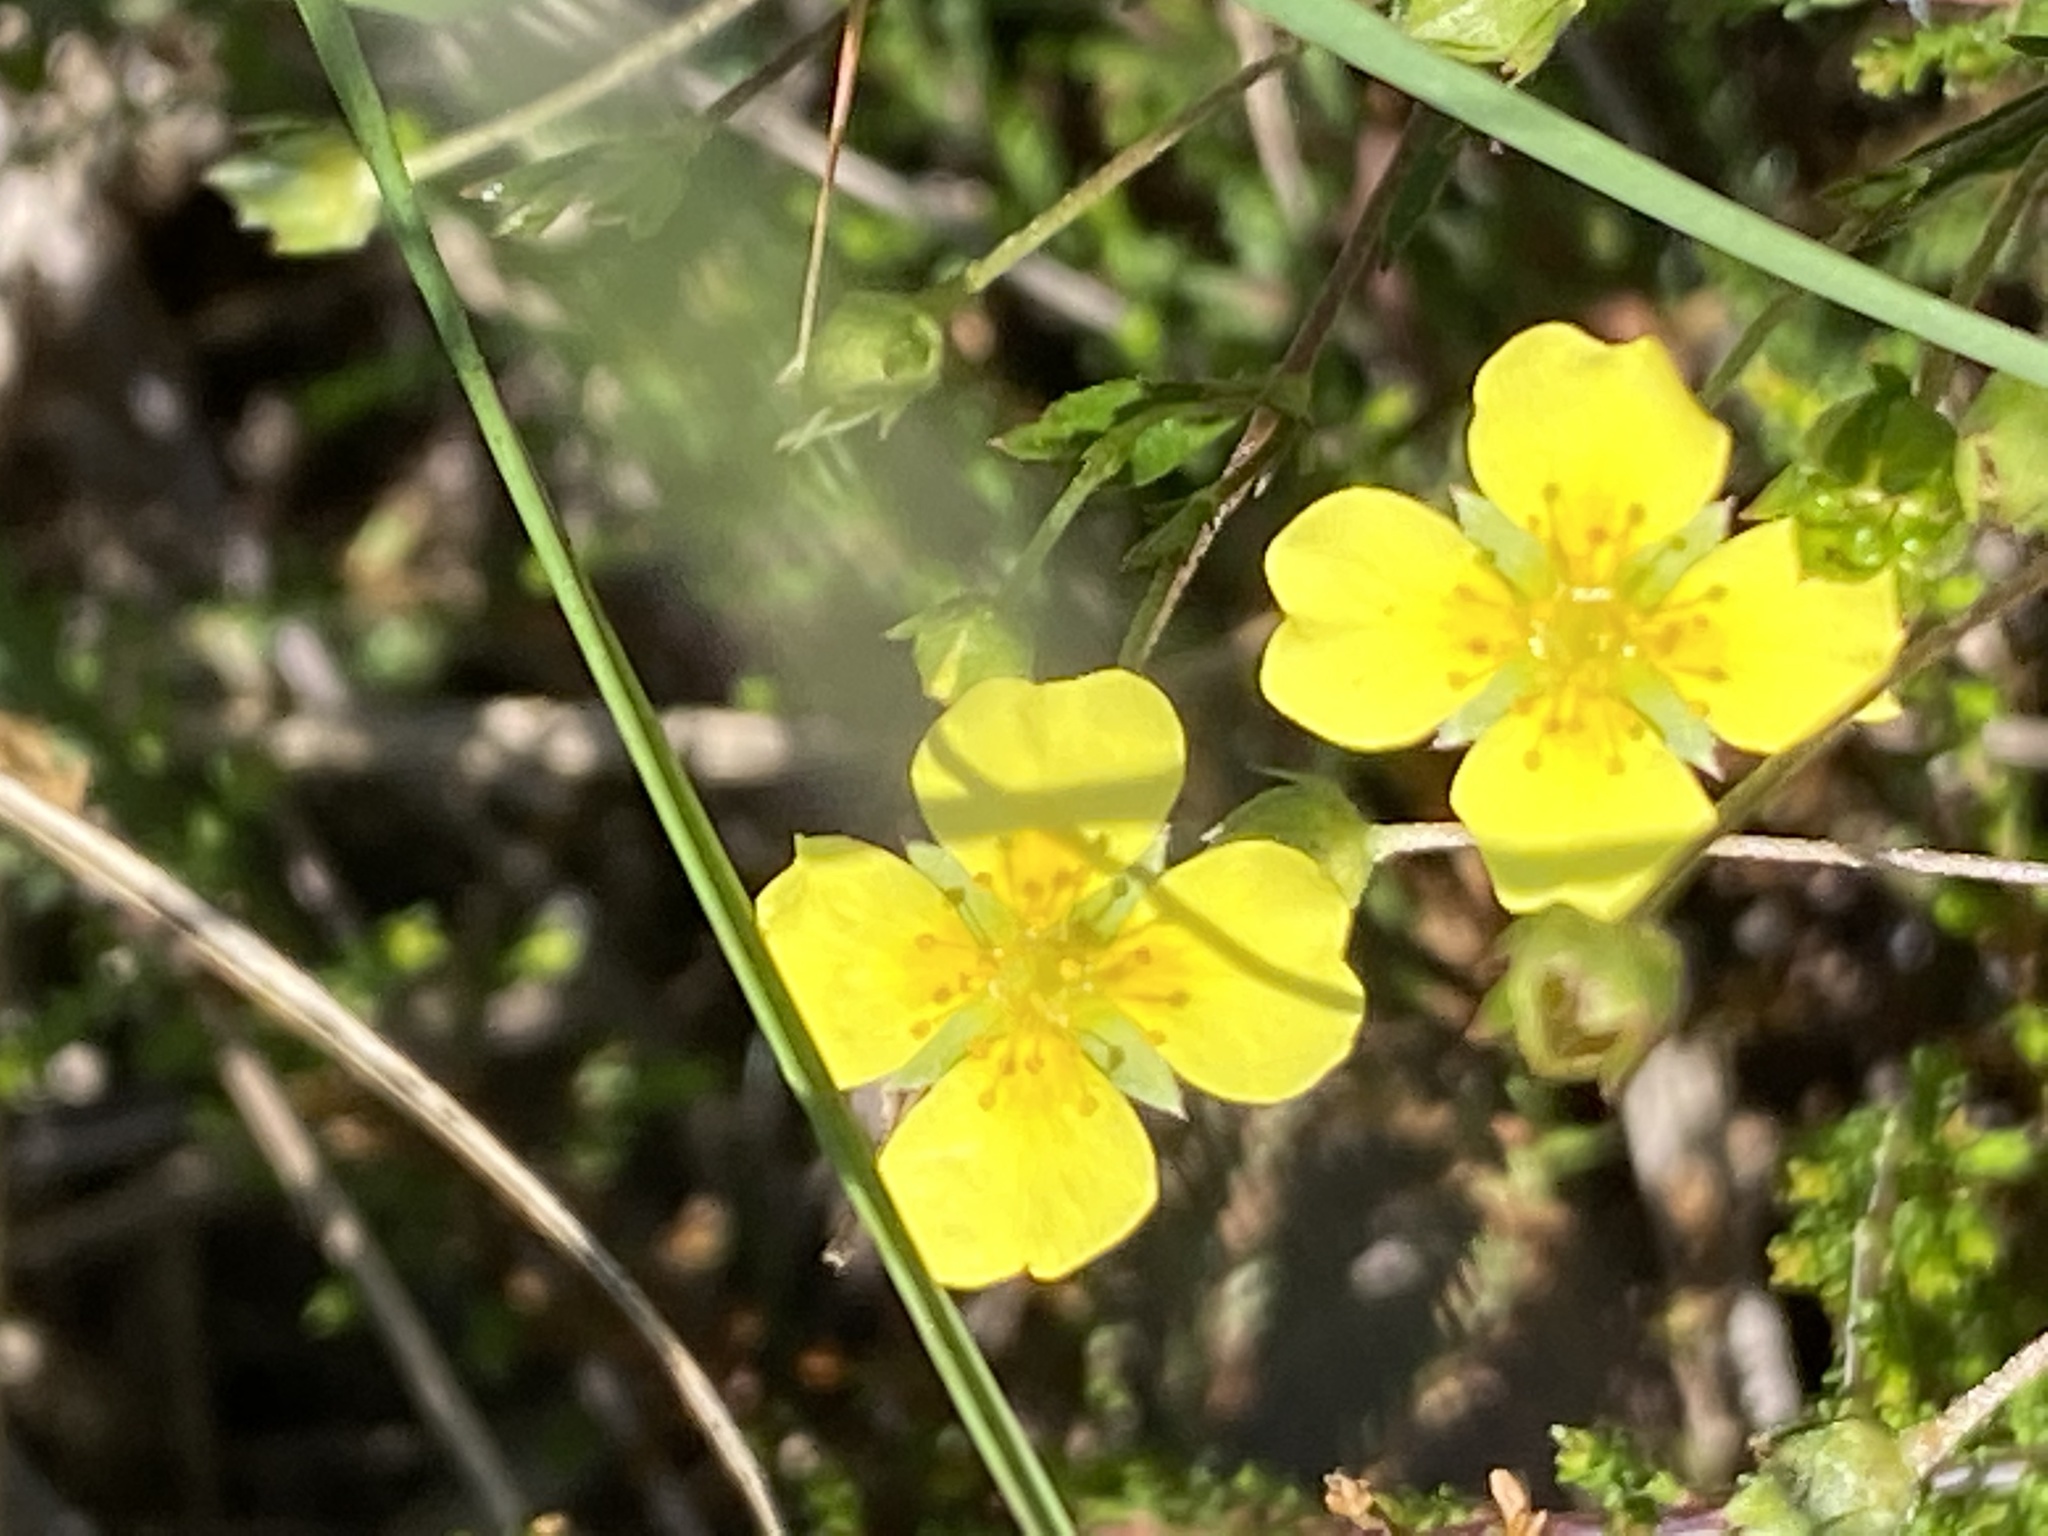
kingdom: Plantae
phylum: Tracheophyta
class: Magnoliopsida
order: Rosales
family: Rosaceae
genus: Potentilla
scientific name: Potentilla erecta
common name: Tormentil
